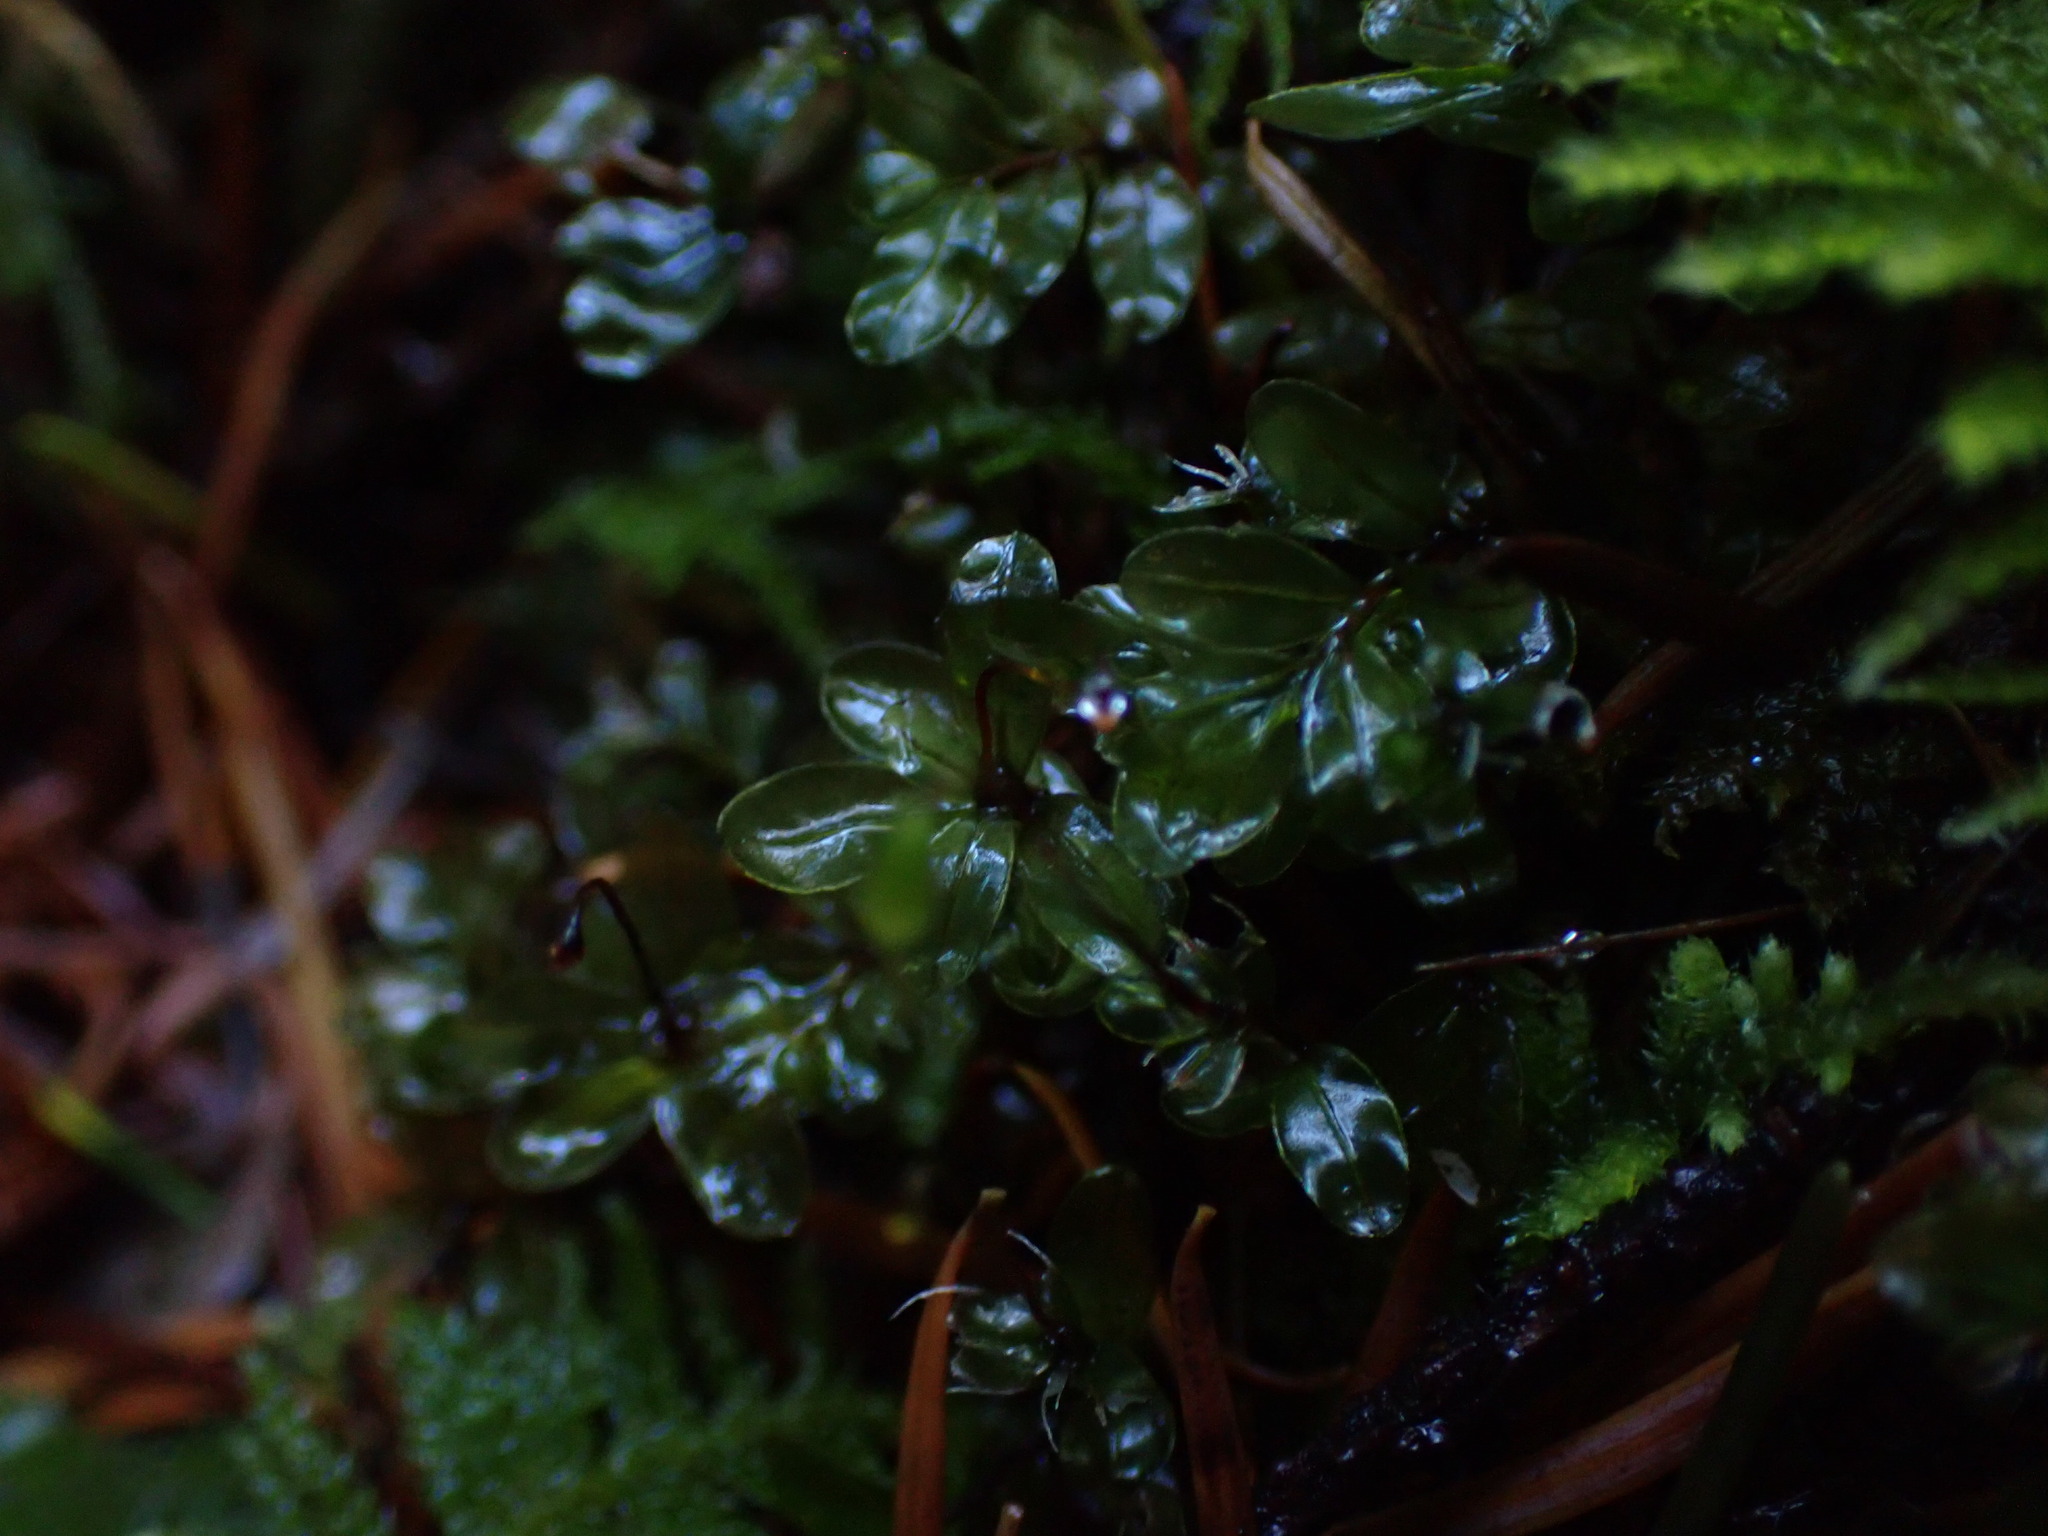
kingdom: Plantae
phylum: Bryophyta
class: Bryopsida
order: Bryales
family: Mniaceae
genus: Rhizomnium
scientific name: Rhizomnium glabrescens
